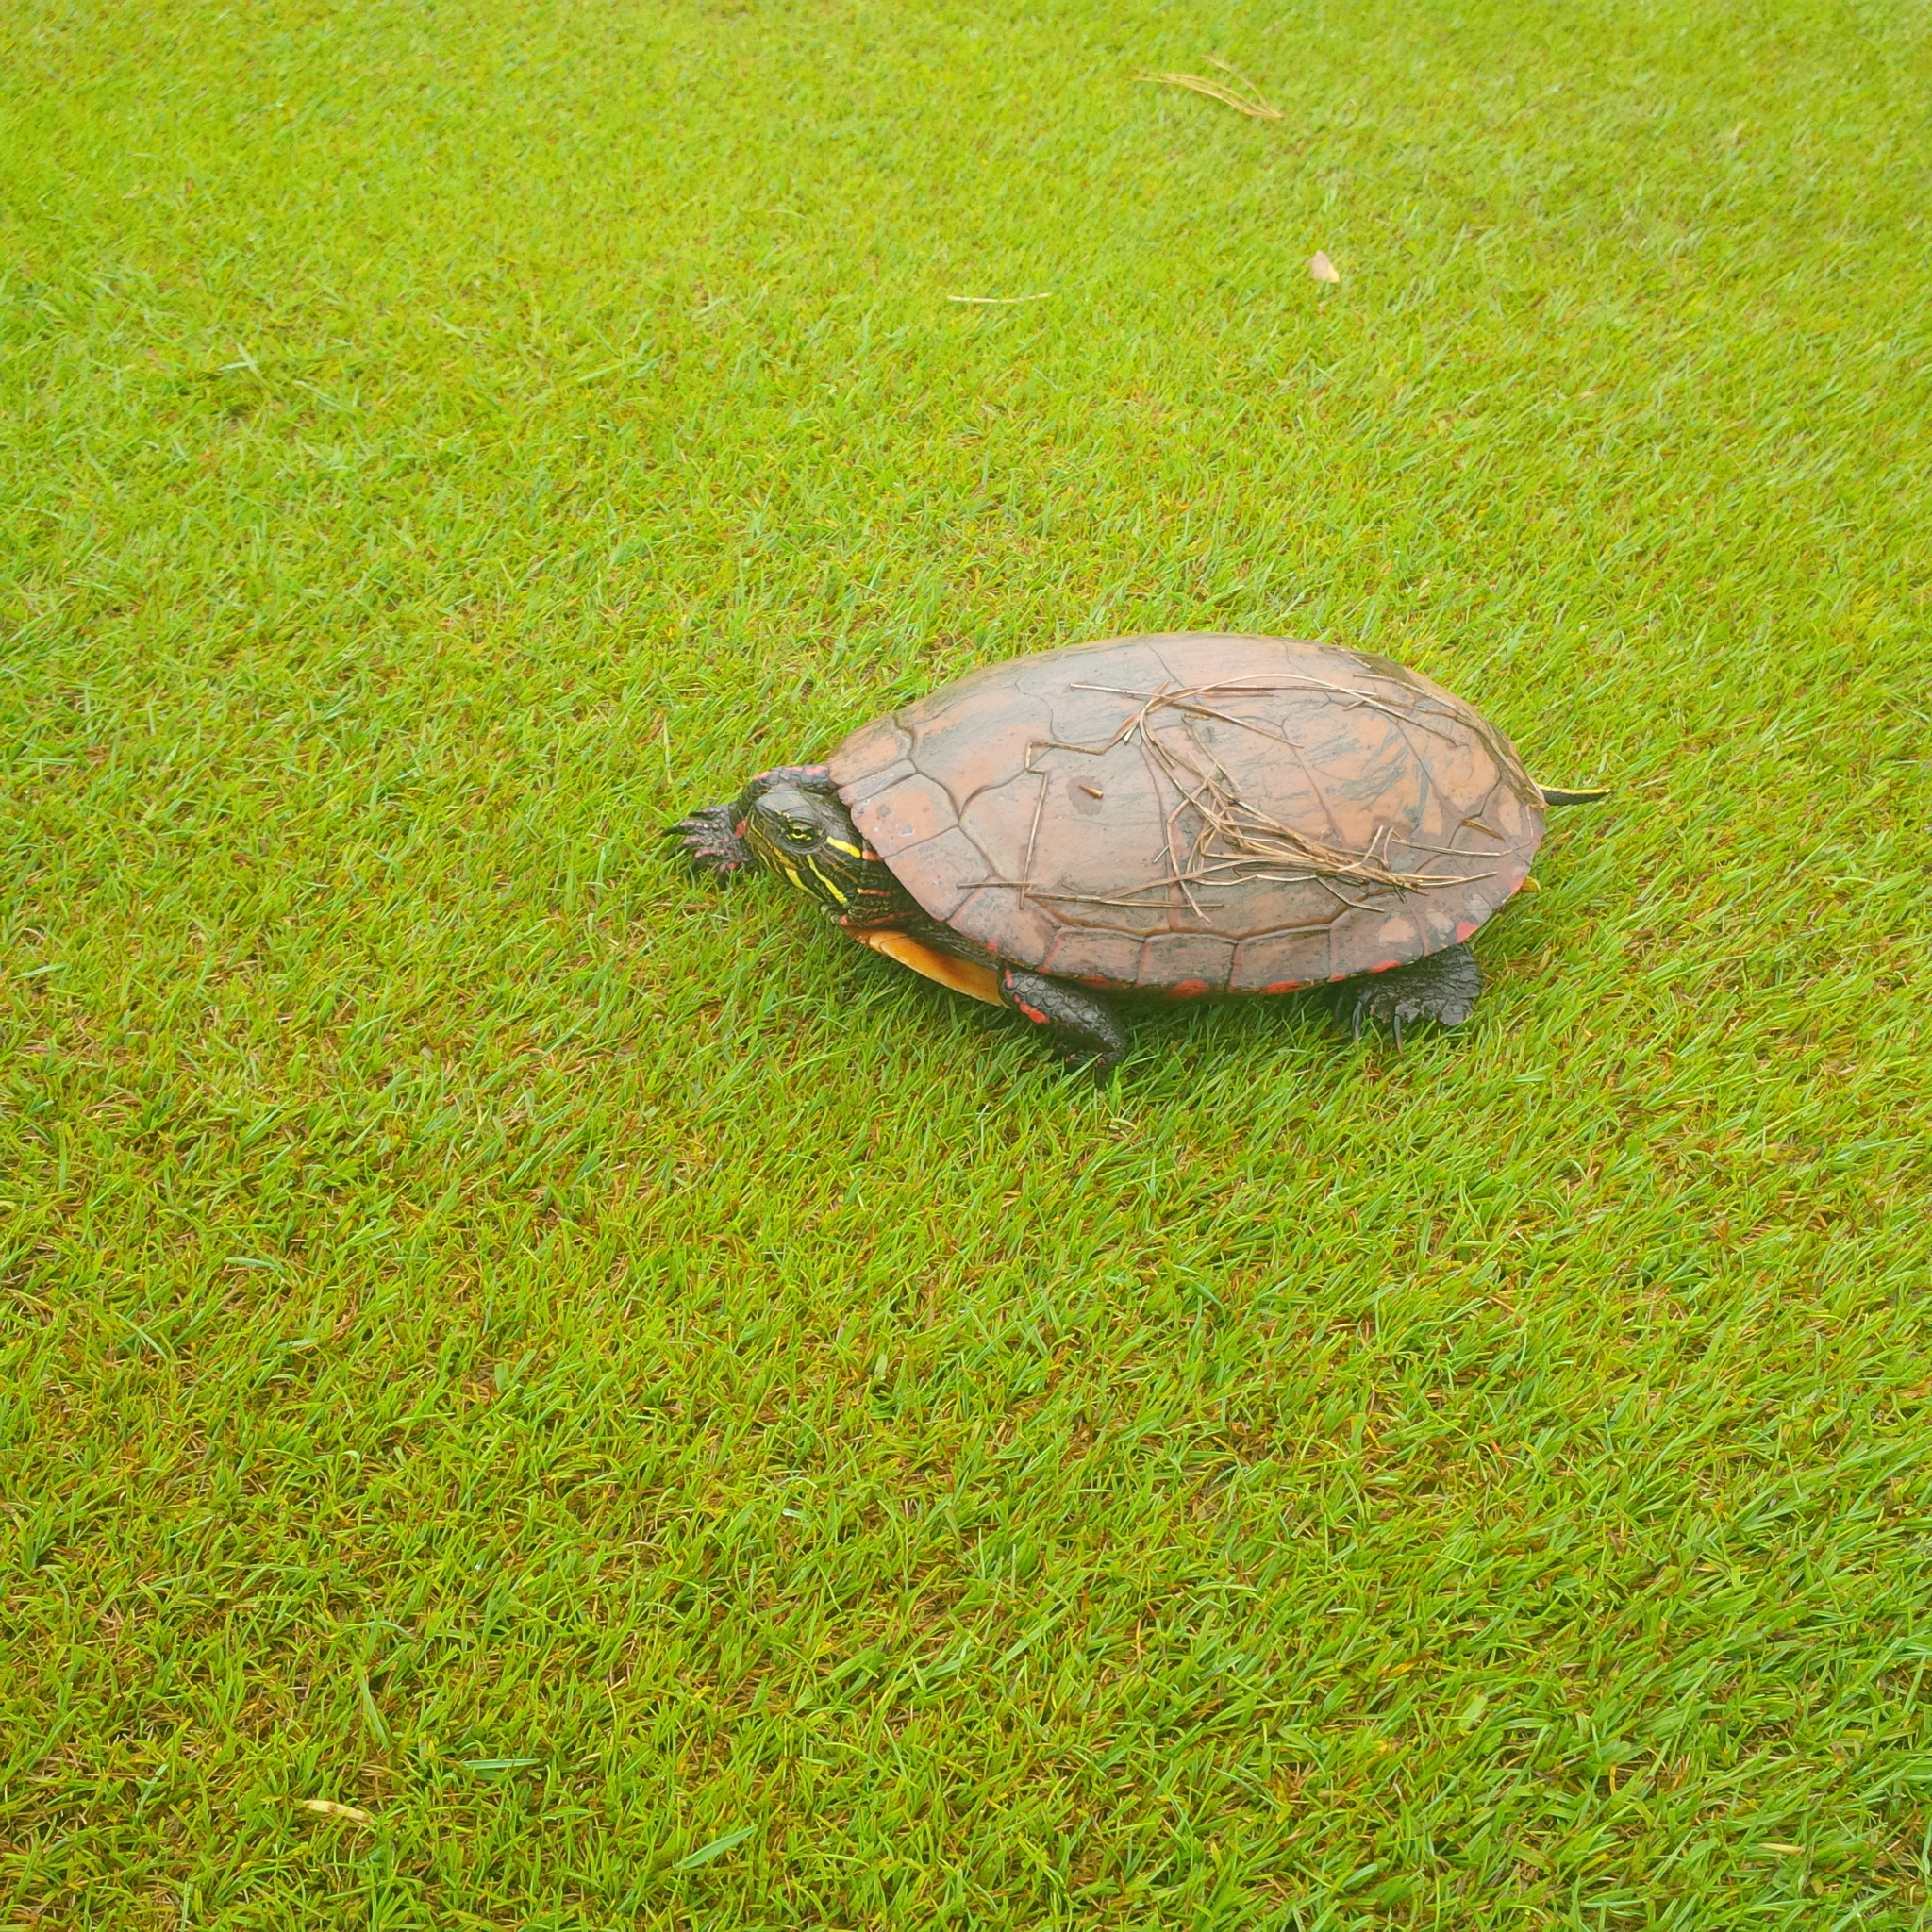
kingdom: Animalia
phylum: Chordata
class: Testudines
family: Emydidae
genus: Chrysemys
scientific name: Chrysemys picta
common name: Painted turtle
